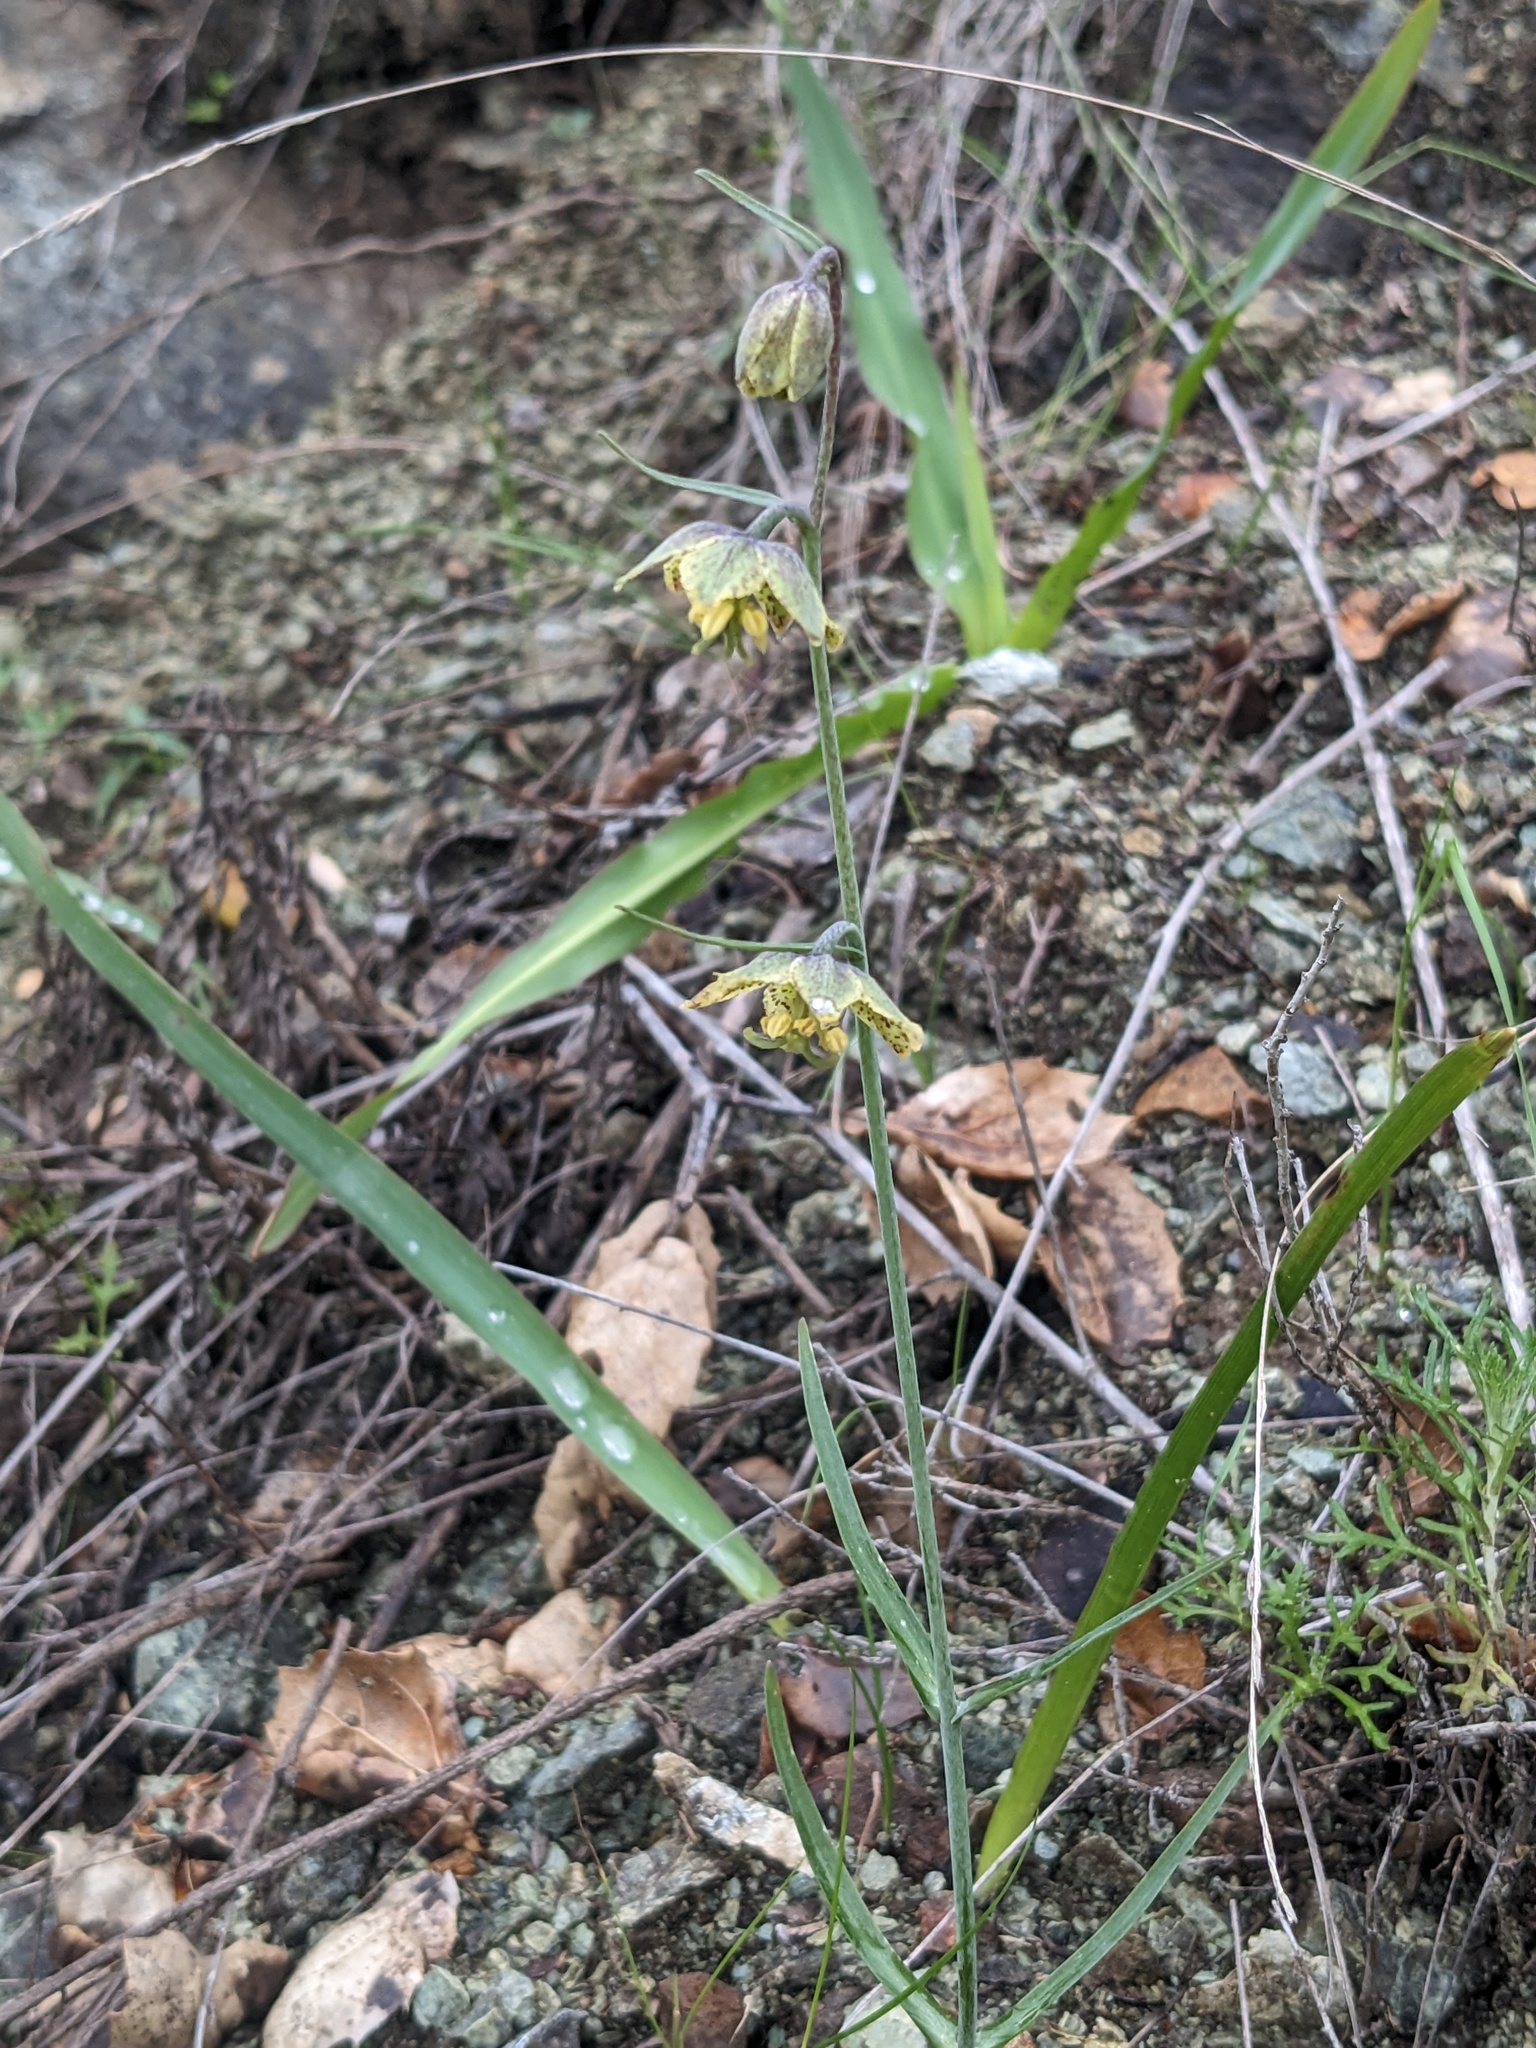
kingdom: Plantae
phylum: Tracheophyta
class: Liliopsida
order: Liliales
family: Liliaceae
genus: Fritillaria
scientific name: Fritillaria ojaiensis
